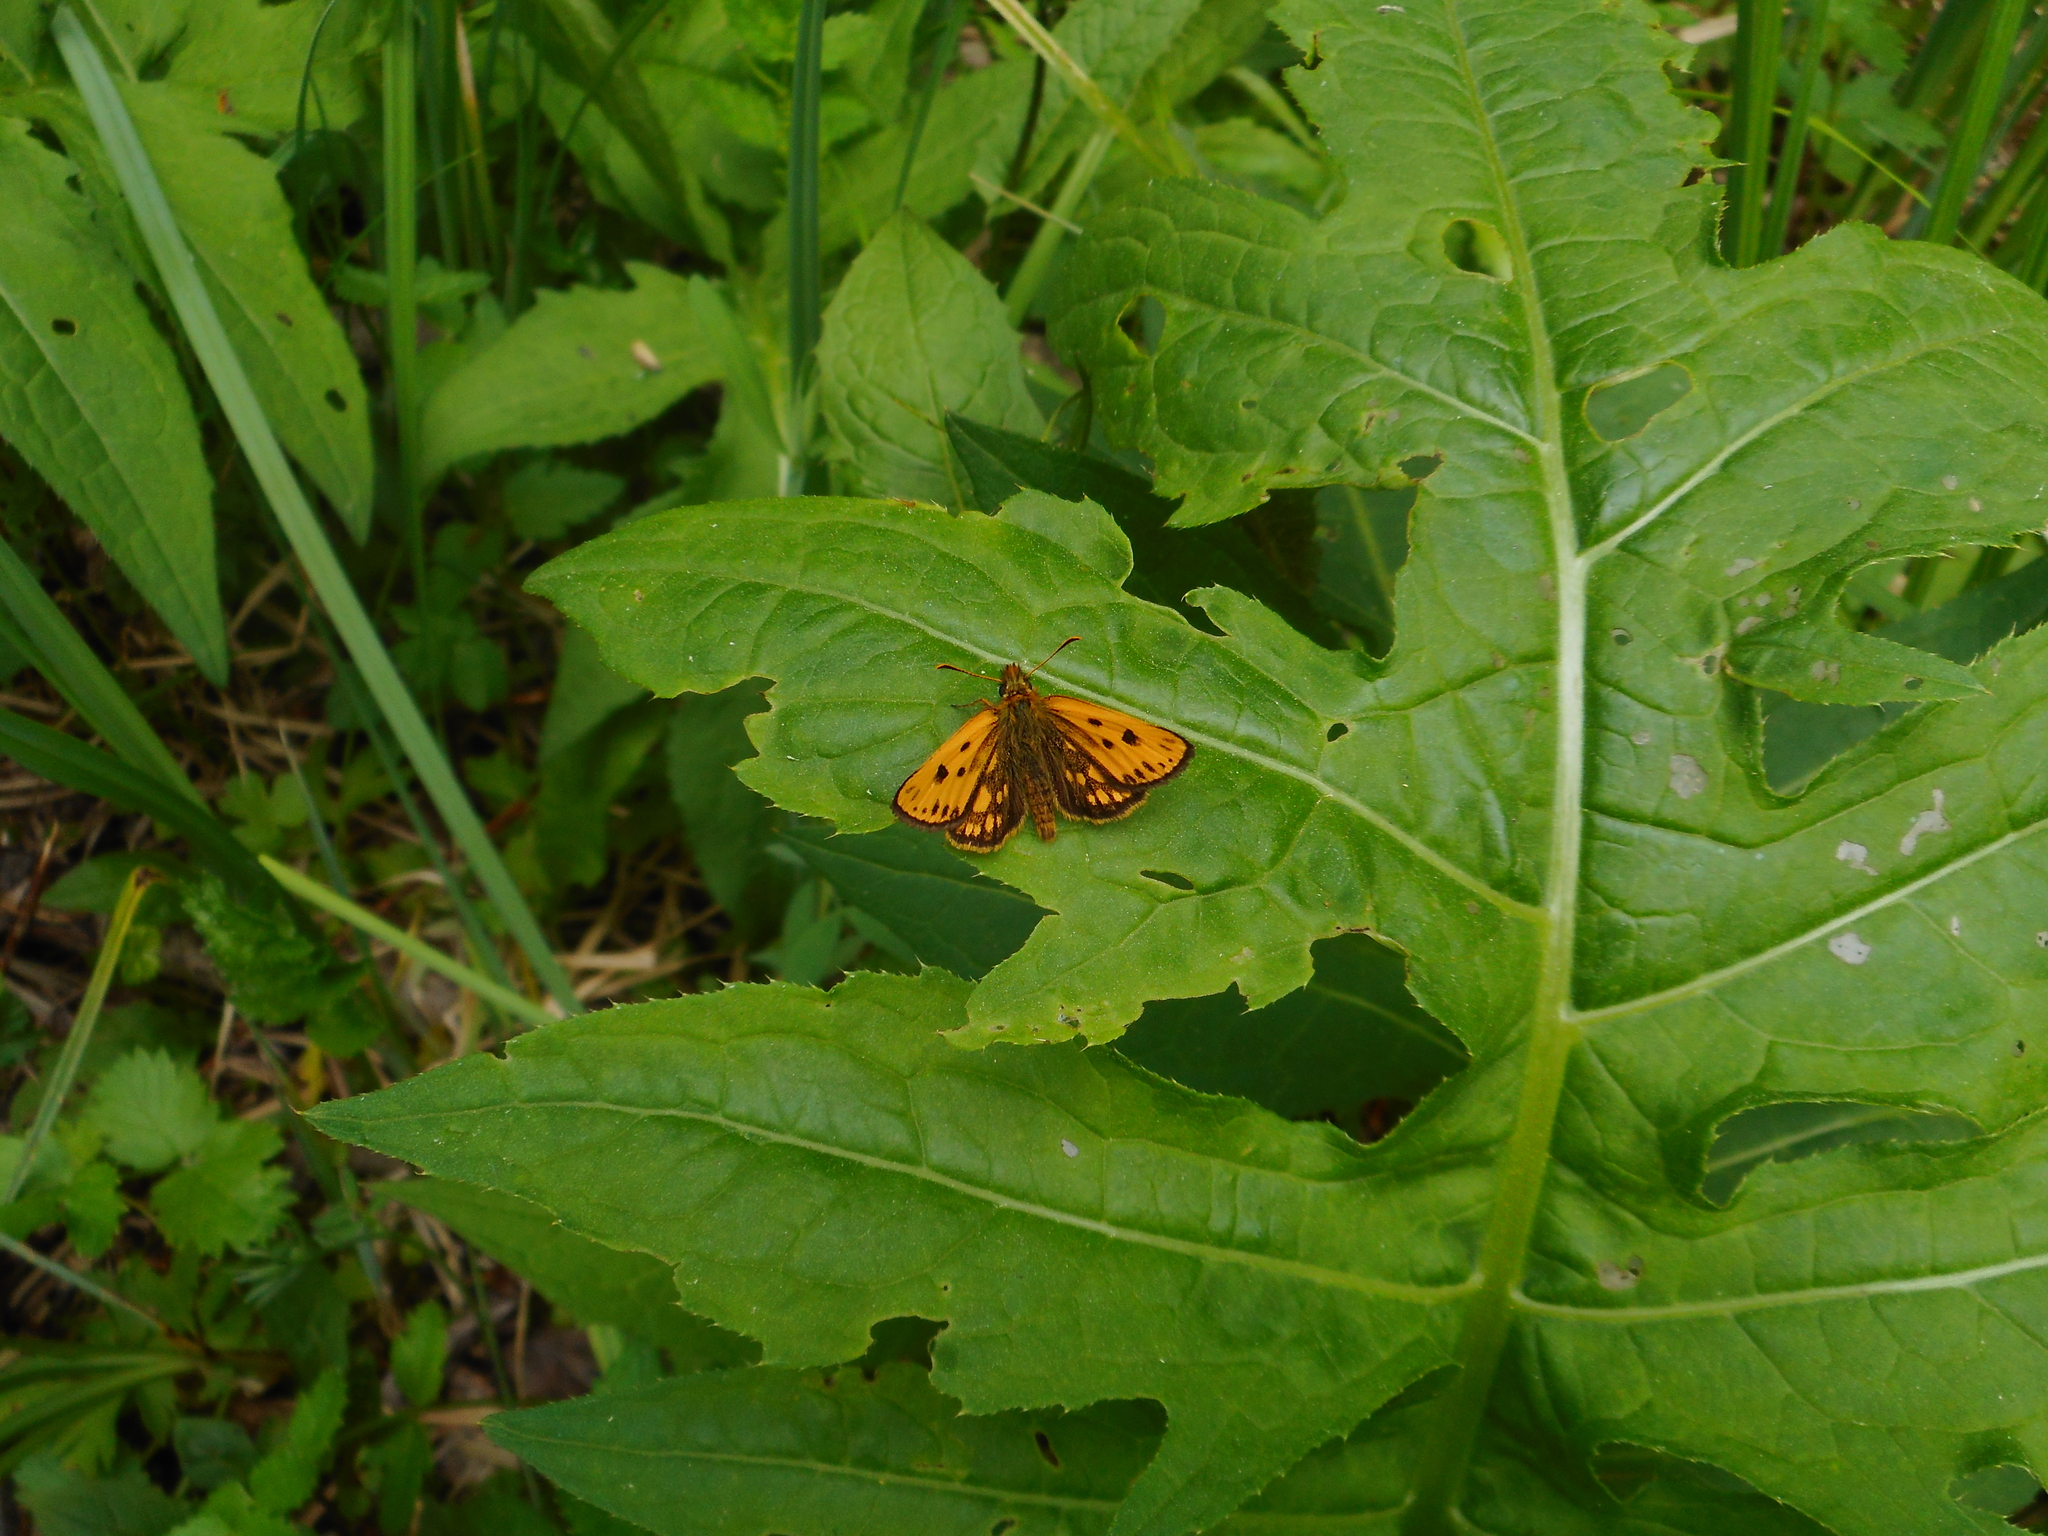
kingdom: Animalia
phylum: Arthropoda
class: Insecta
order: Lepidoptera
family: Hesperiidae
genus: Carterocephalus
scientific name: Carterocephalus silvicola
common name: Northern chequered skipper
